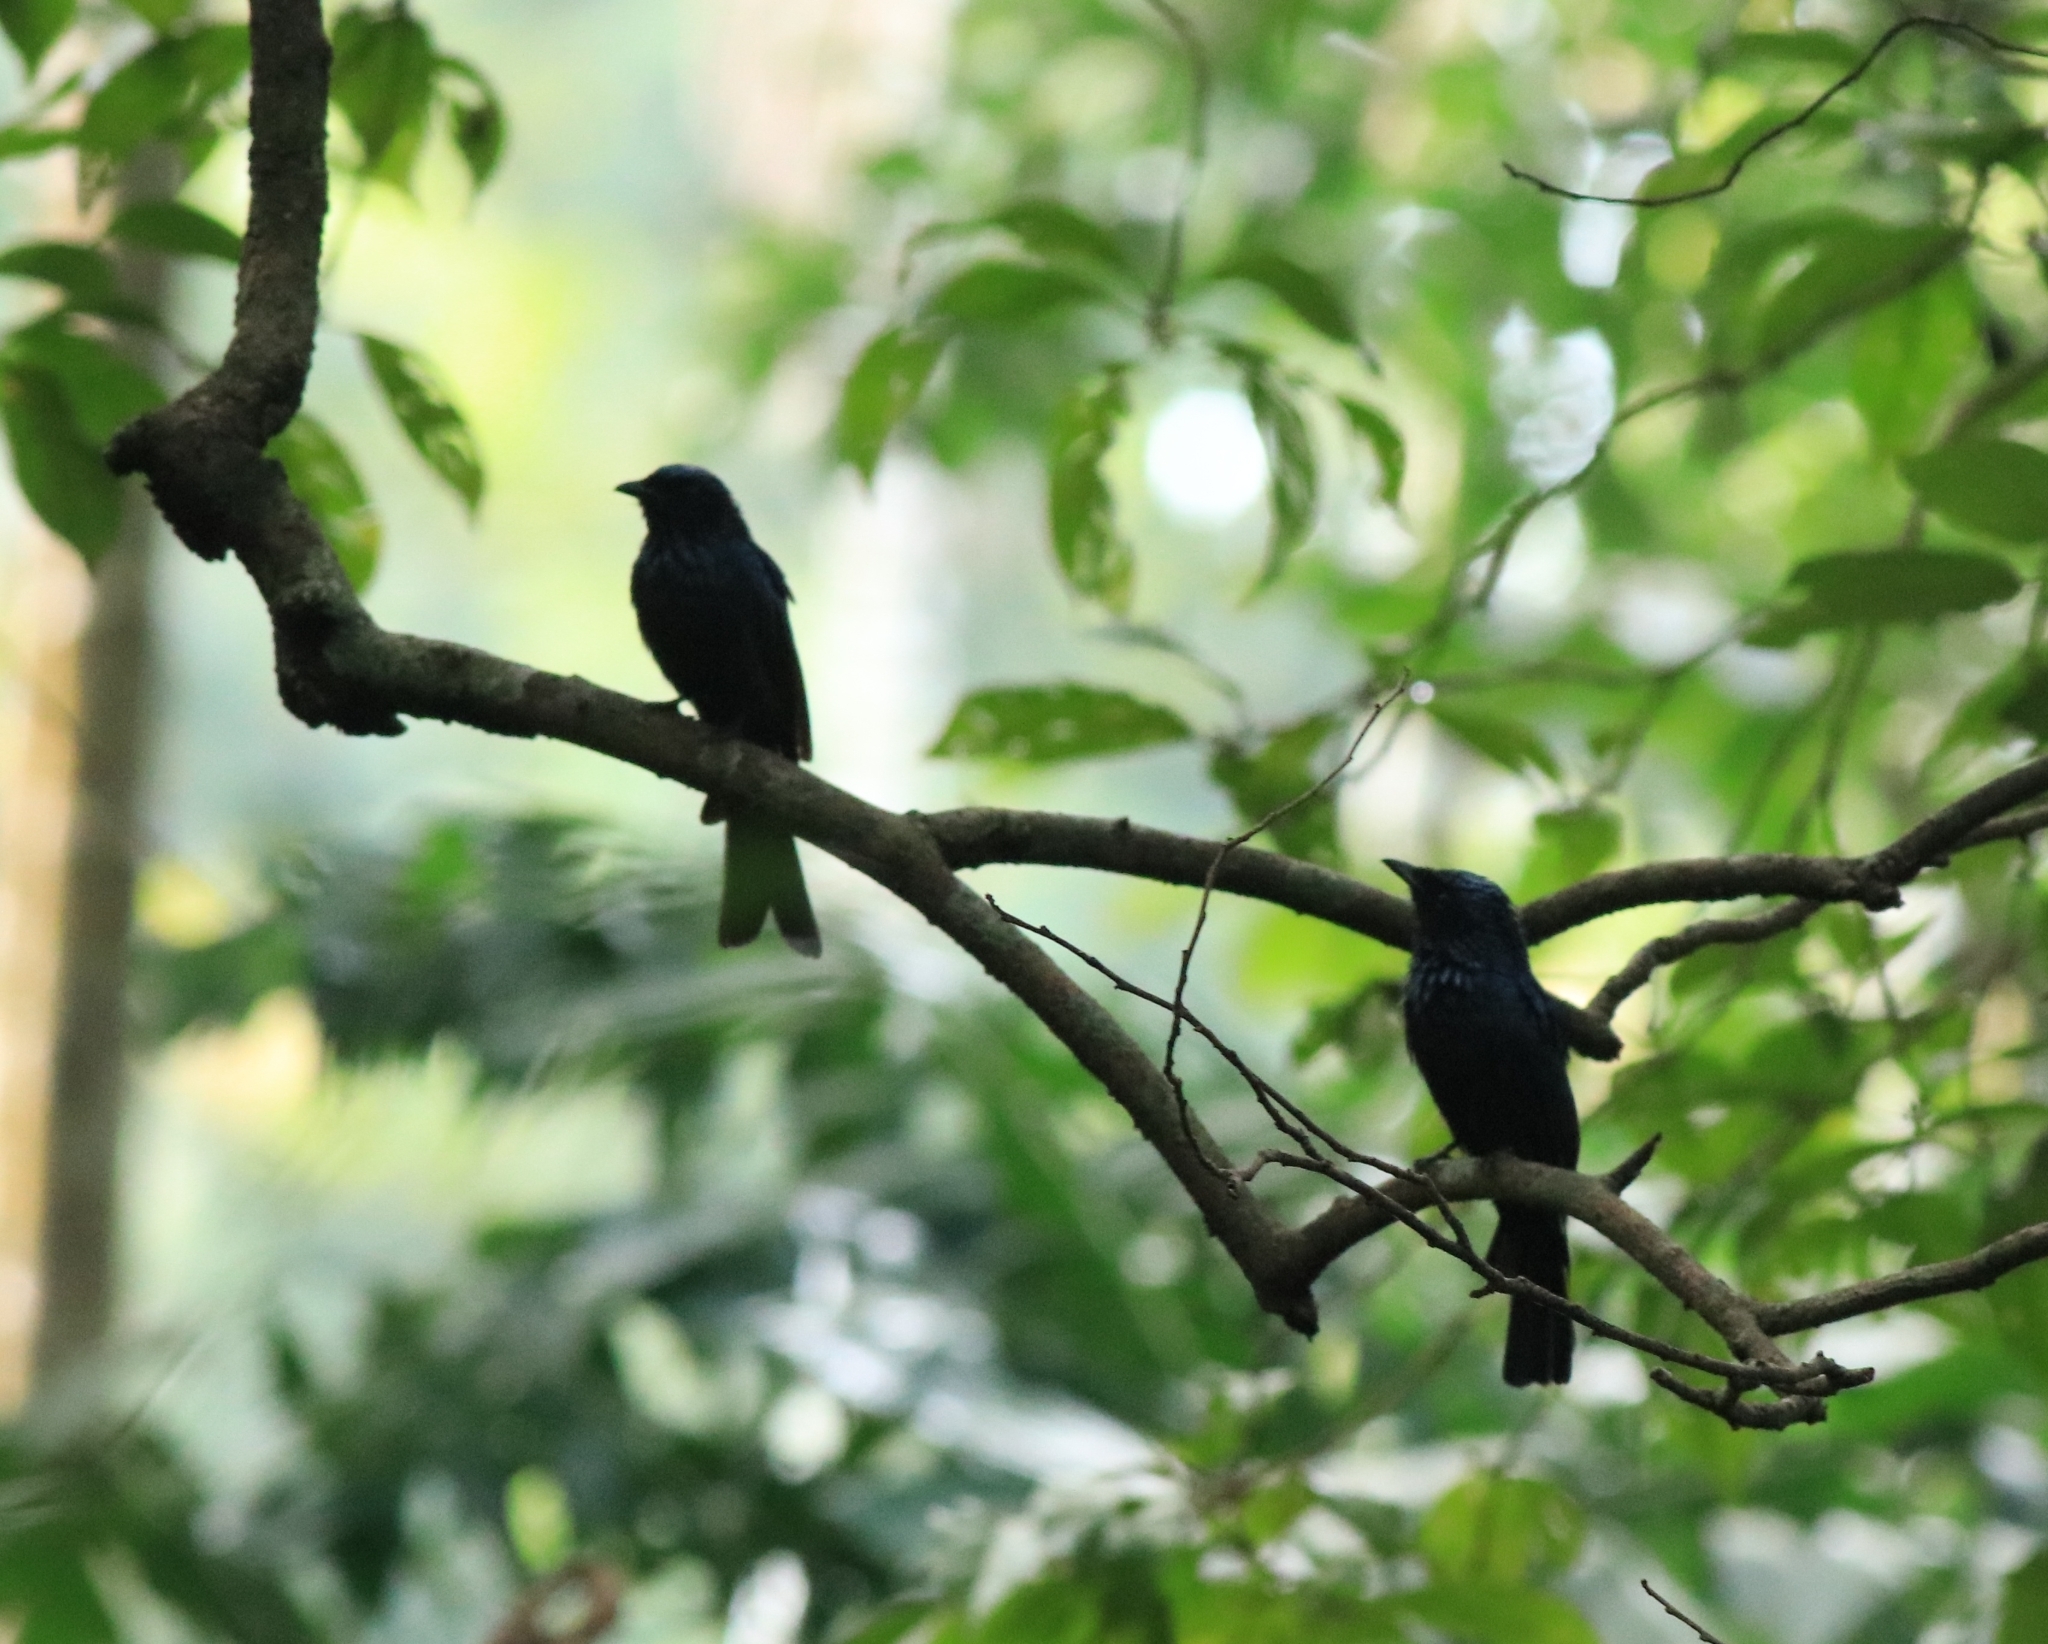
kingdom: Animalia
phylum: Chordata
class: Aves
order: Passeriformes
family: Dicruridae
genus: Dicrurus
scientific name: Dicrurus aeneus
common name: Bronzed drongo
